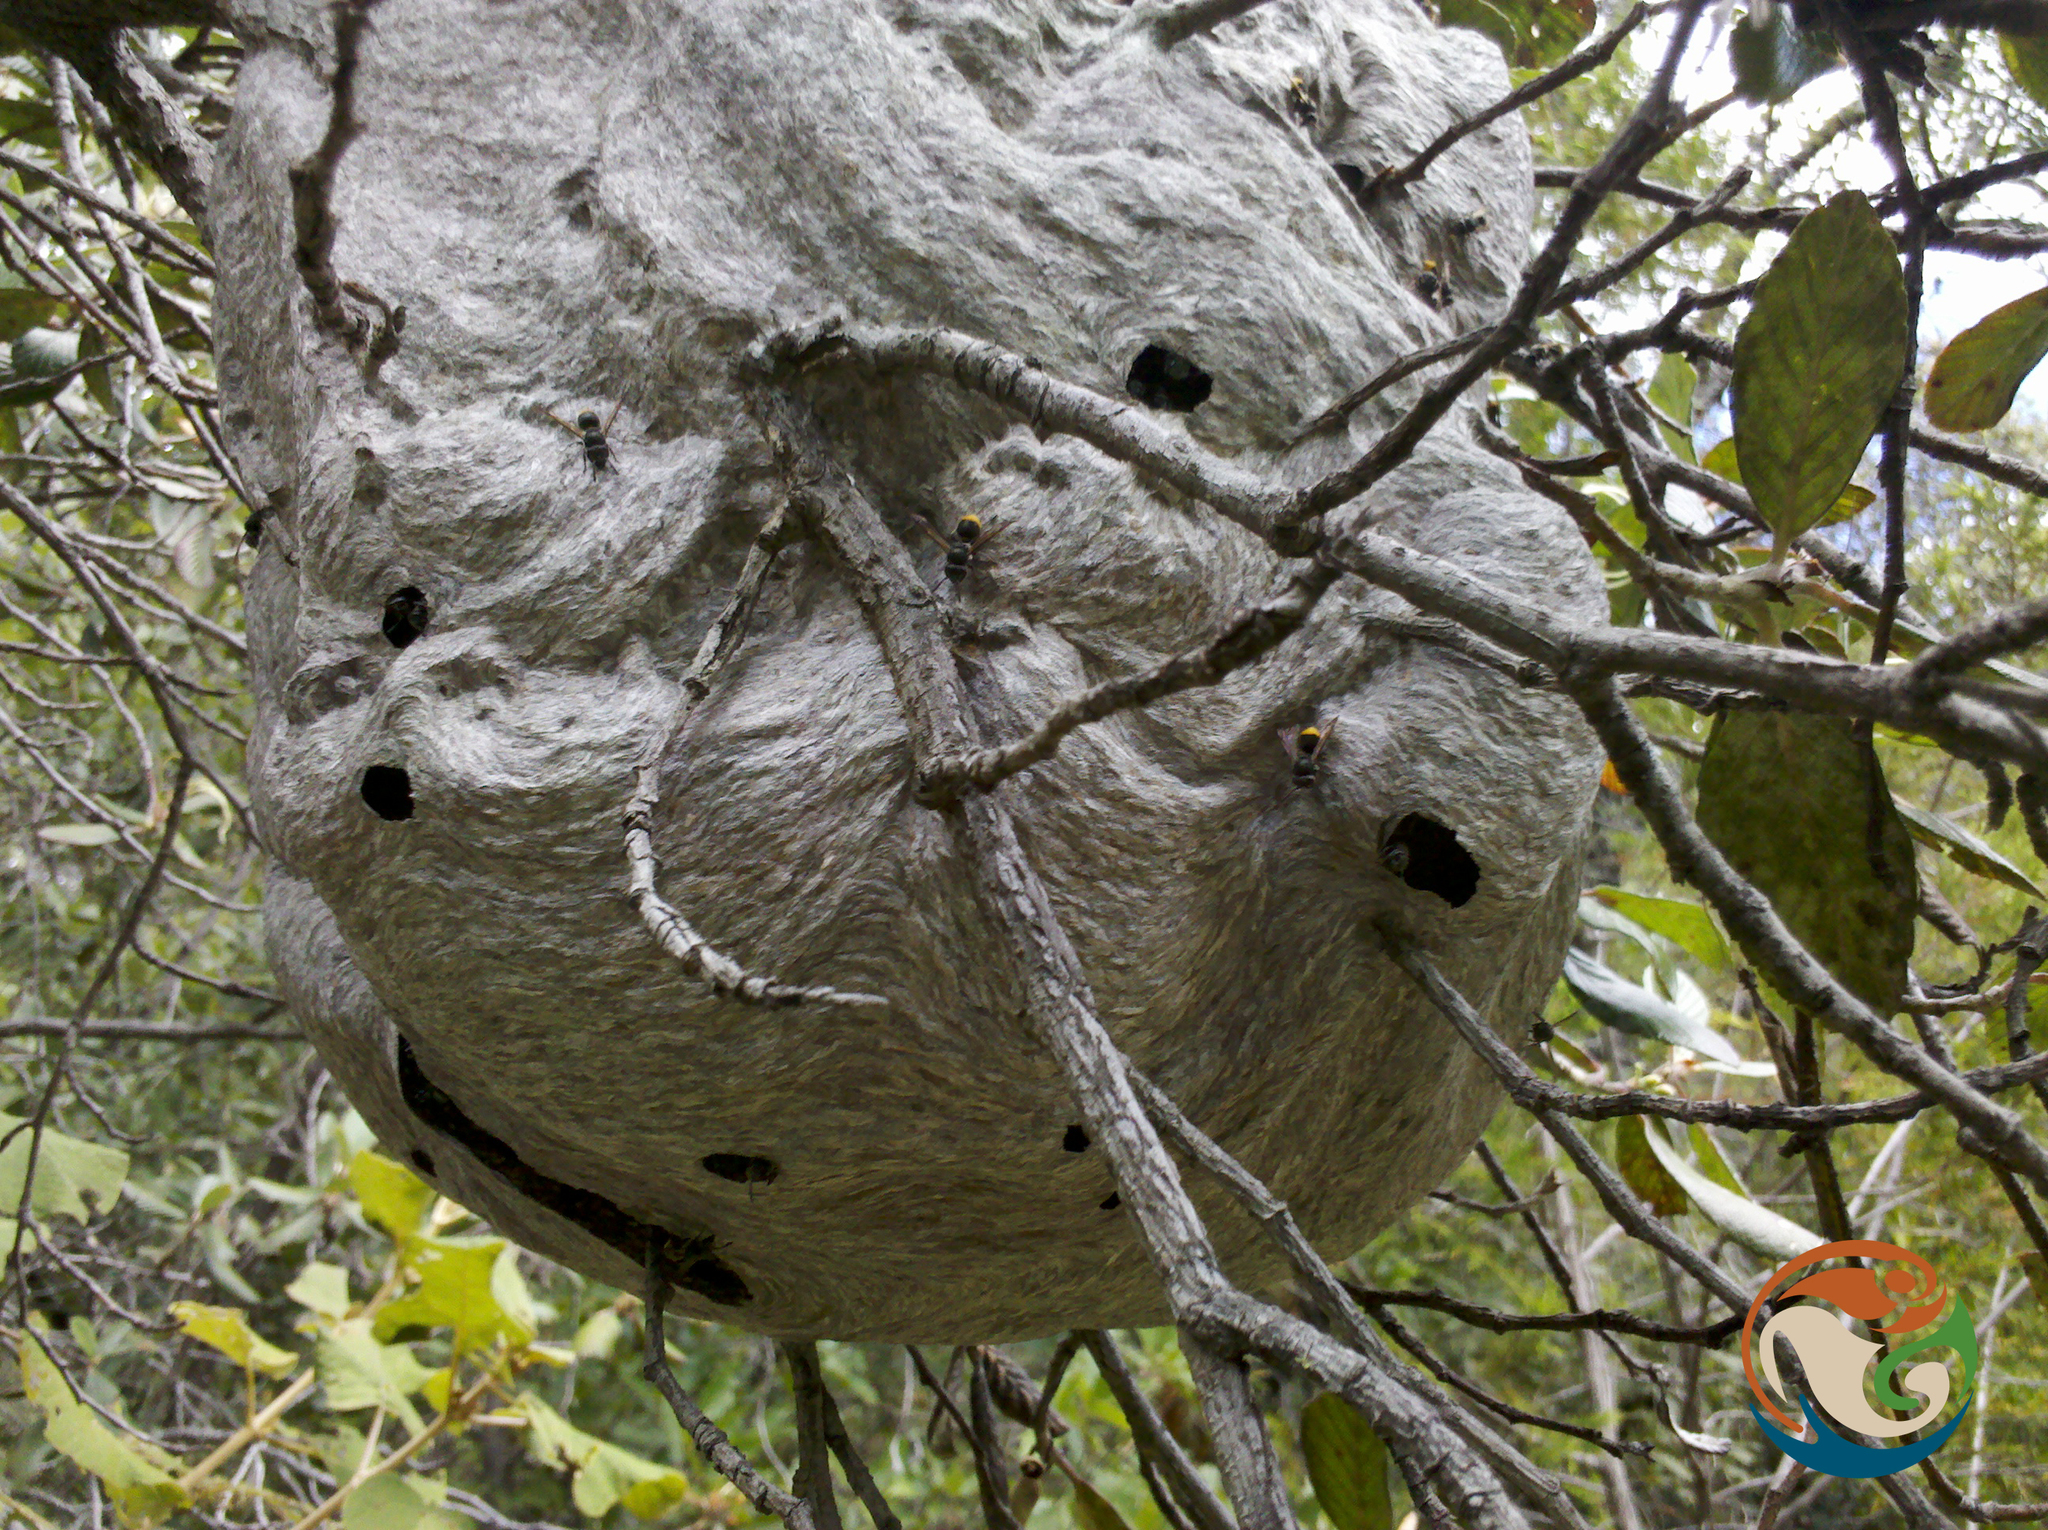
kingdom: Animalia
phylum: Arthropoda
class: Insecta
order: Hymenoptera
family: Vespidae
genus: Brachygastra
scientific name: Brachygastra azteca
